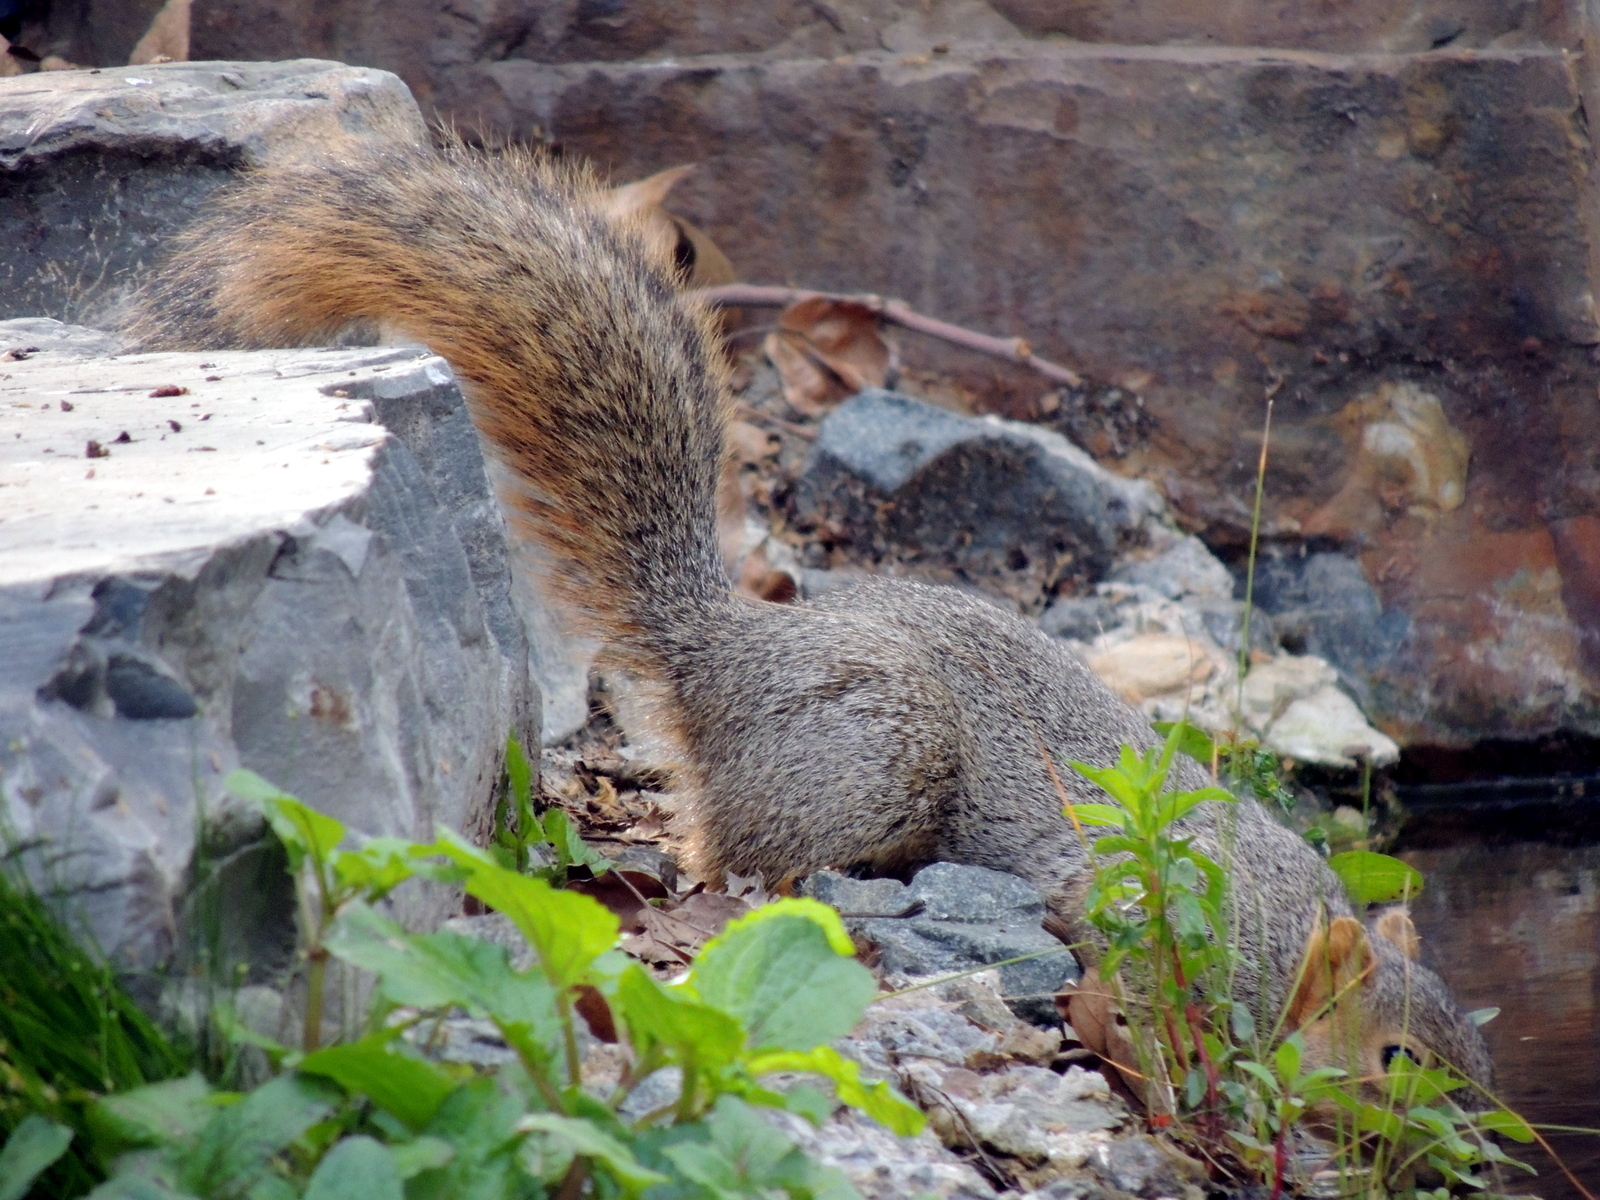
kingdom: Animalia
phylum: Chordata
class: Mammalia
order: Rodentia
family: Sciuridae
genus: Sciurus
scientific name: Sciurus niger
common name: Fox squirrel
